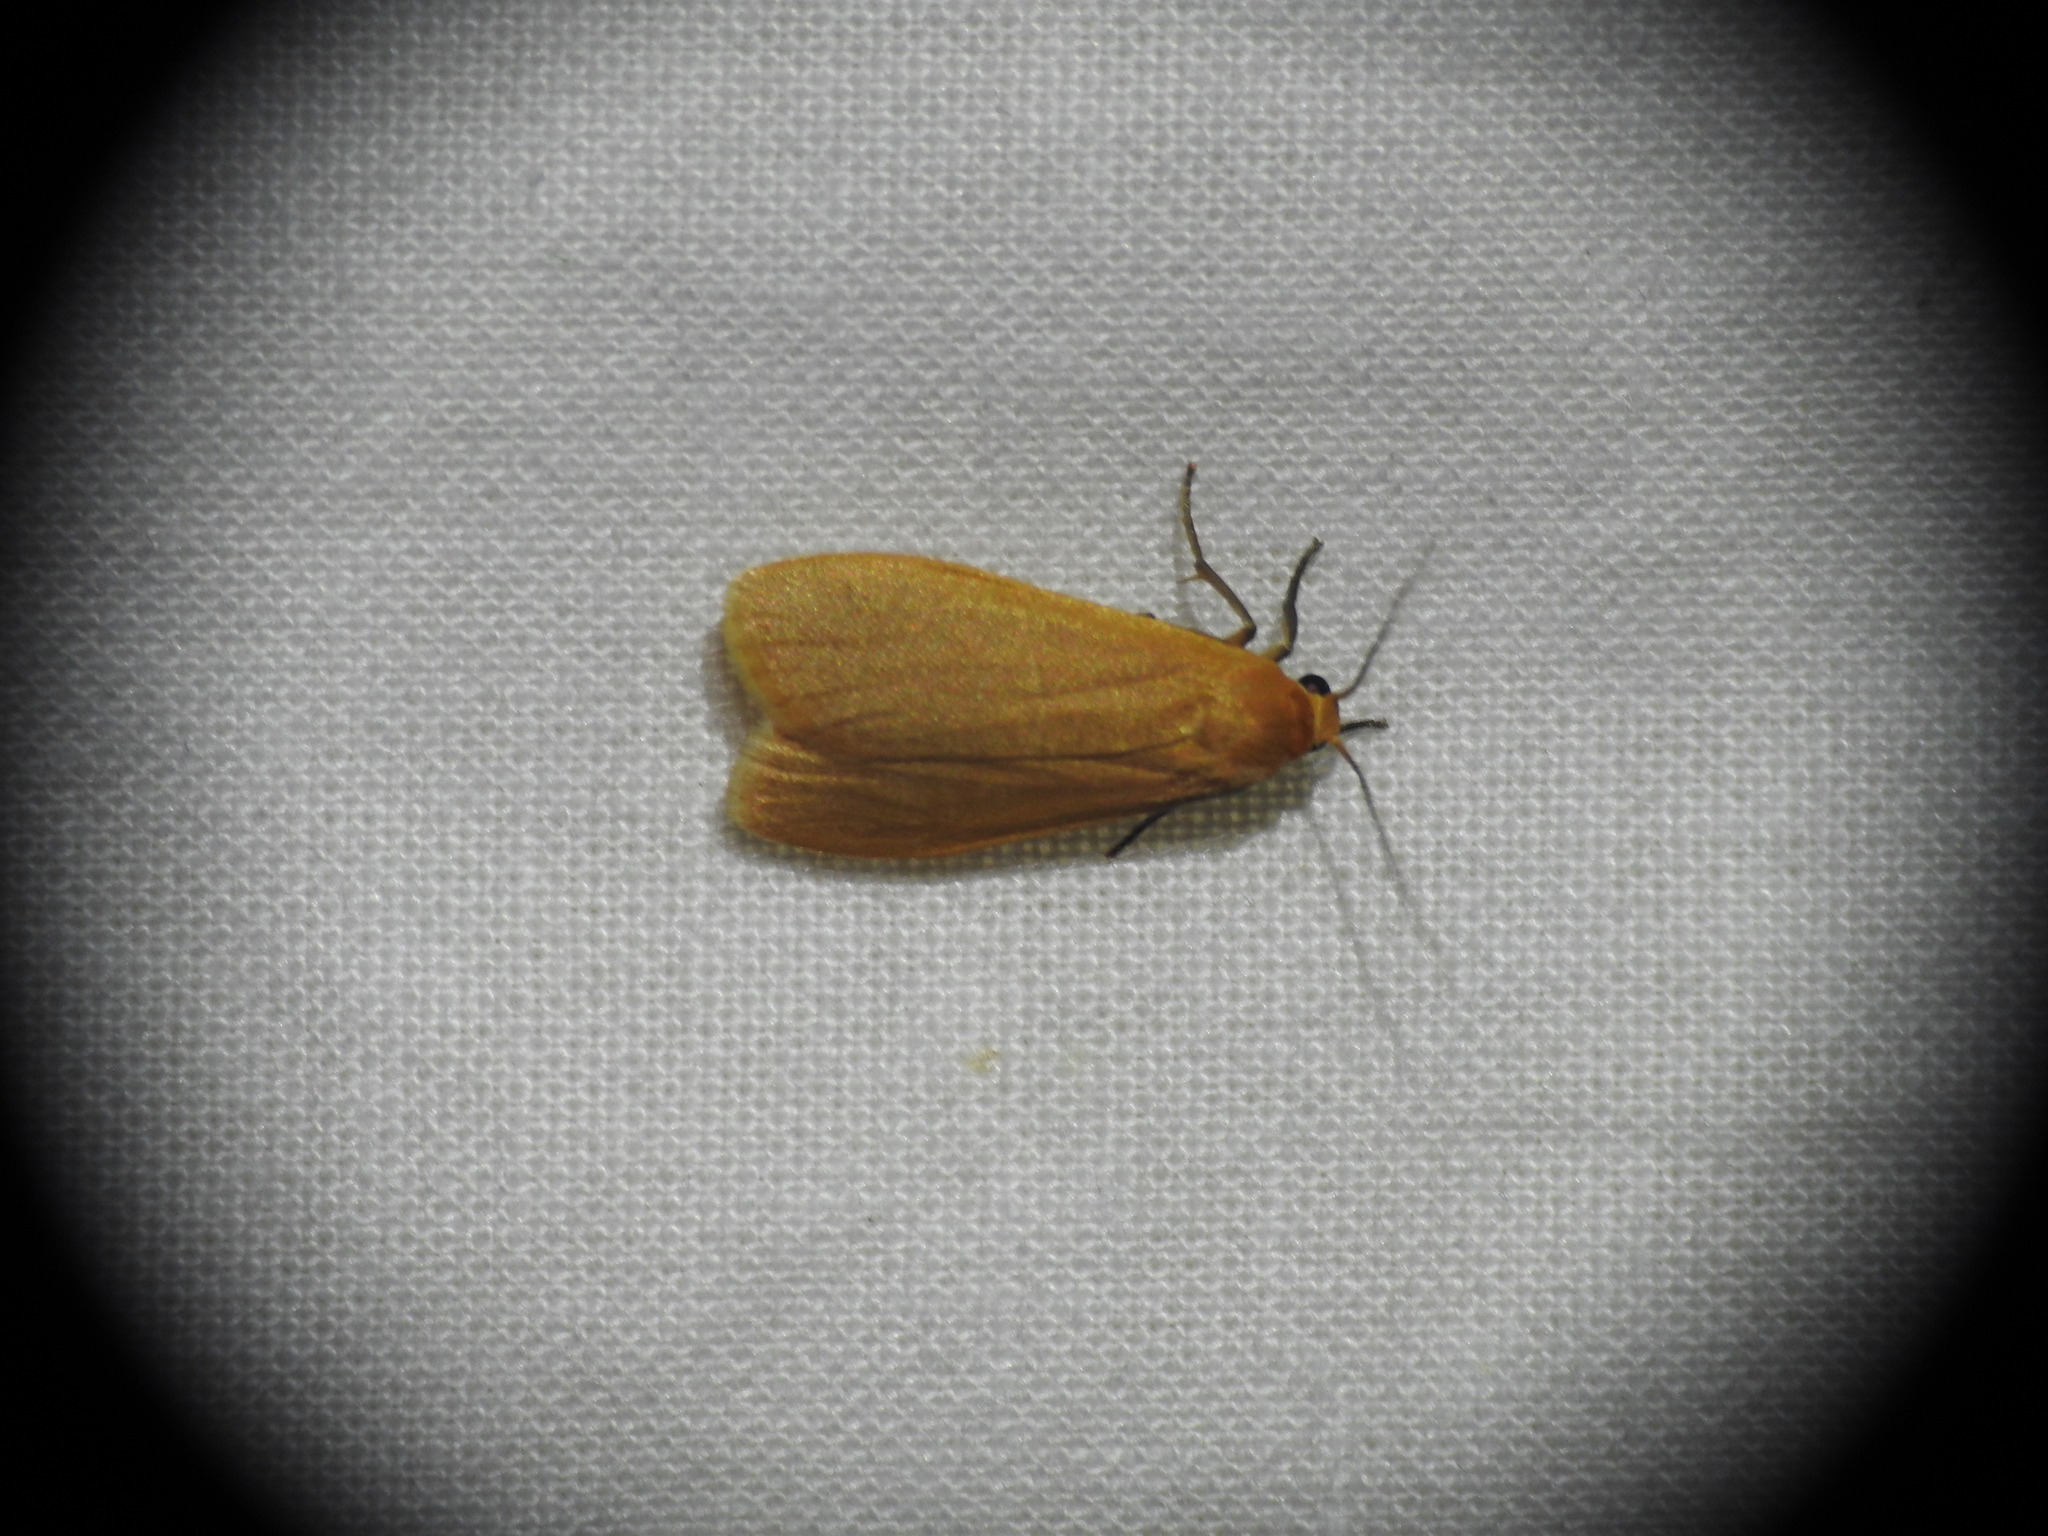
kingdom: Animalia
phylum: Arthropoda
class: Insecta
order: Lepidoptera
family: Erebidae
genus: Wittia
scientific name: Wittia sororcula
